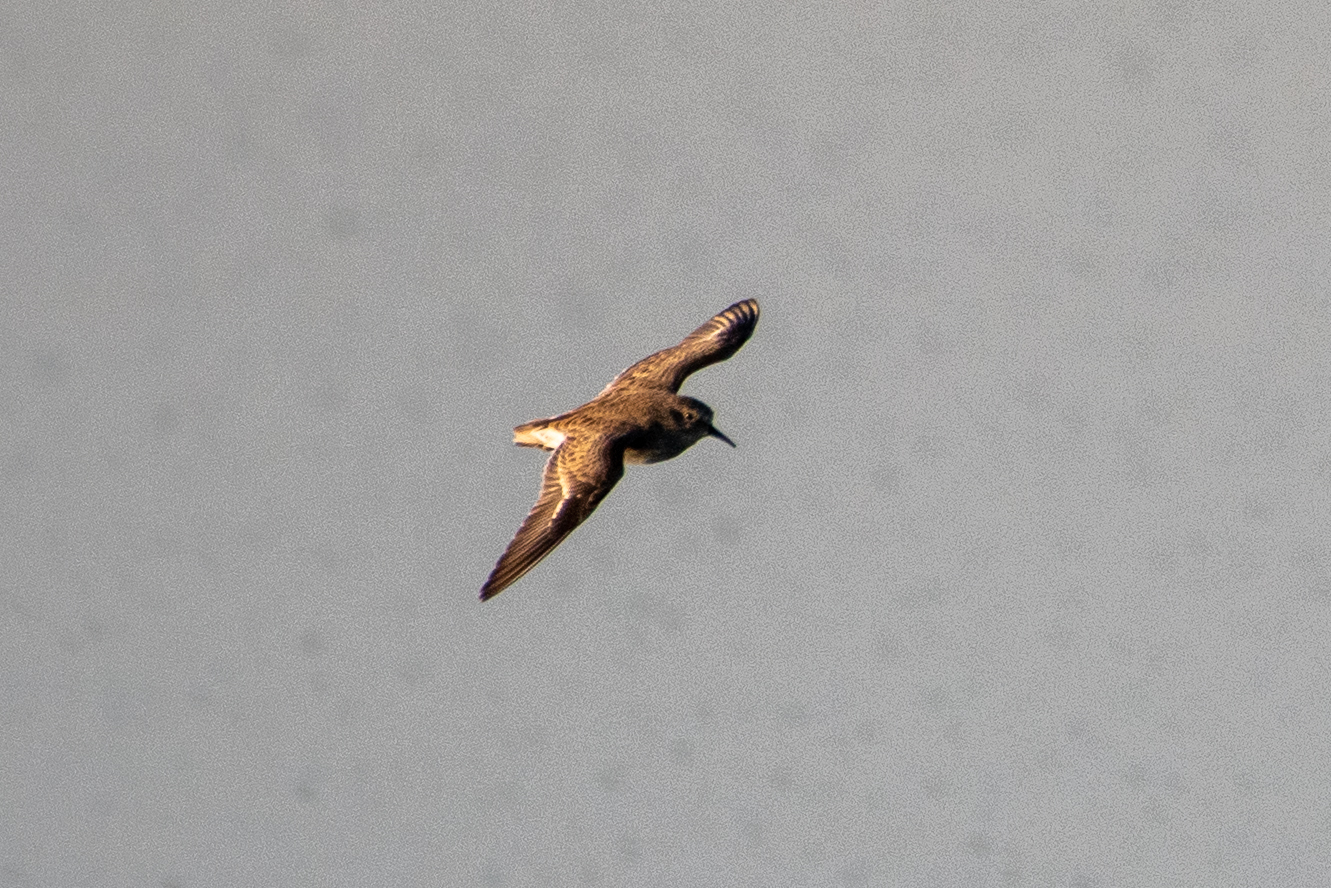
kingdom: Animalia
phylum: Chordata
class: Aves
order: Charadriiformes
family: Scolopacidae
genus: Calidris
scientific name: Calidris minutilla
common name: Least sandpiper
